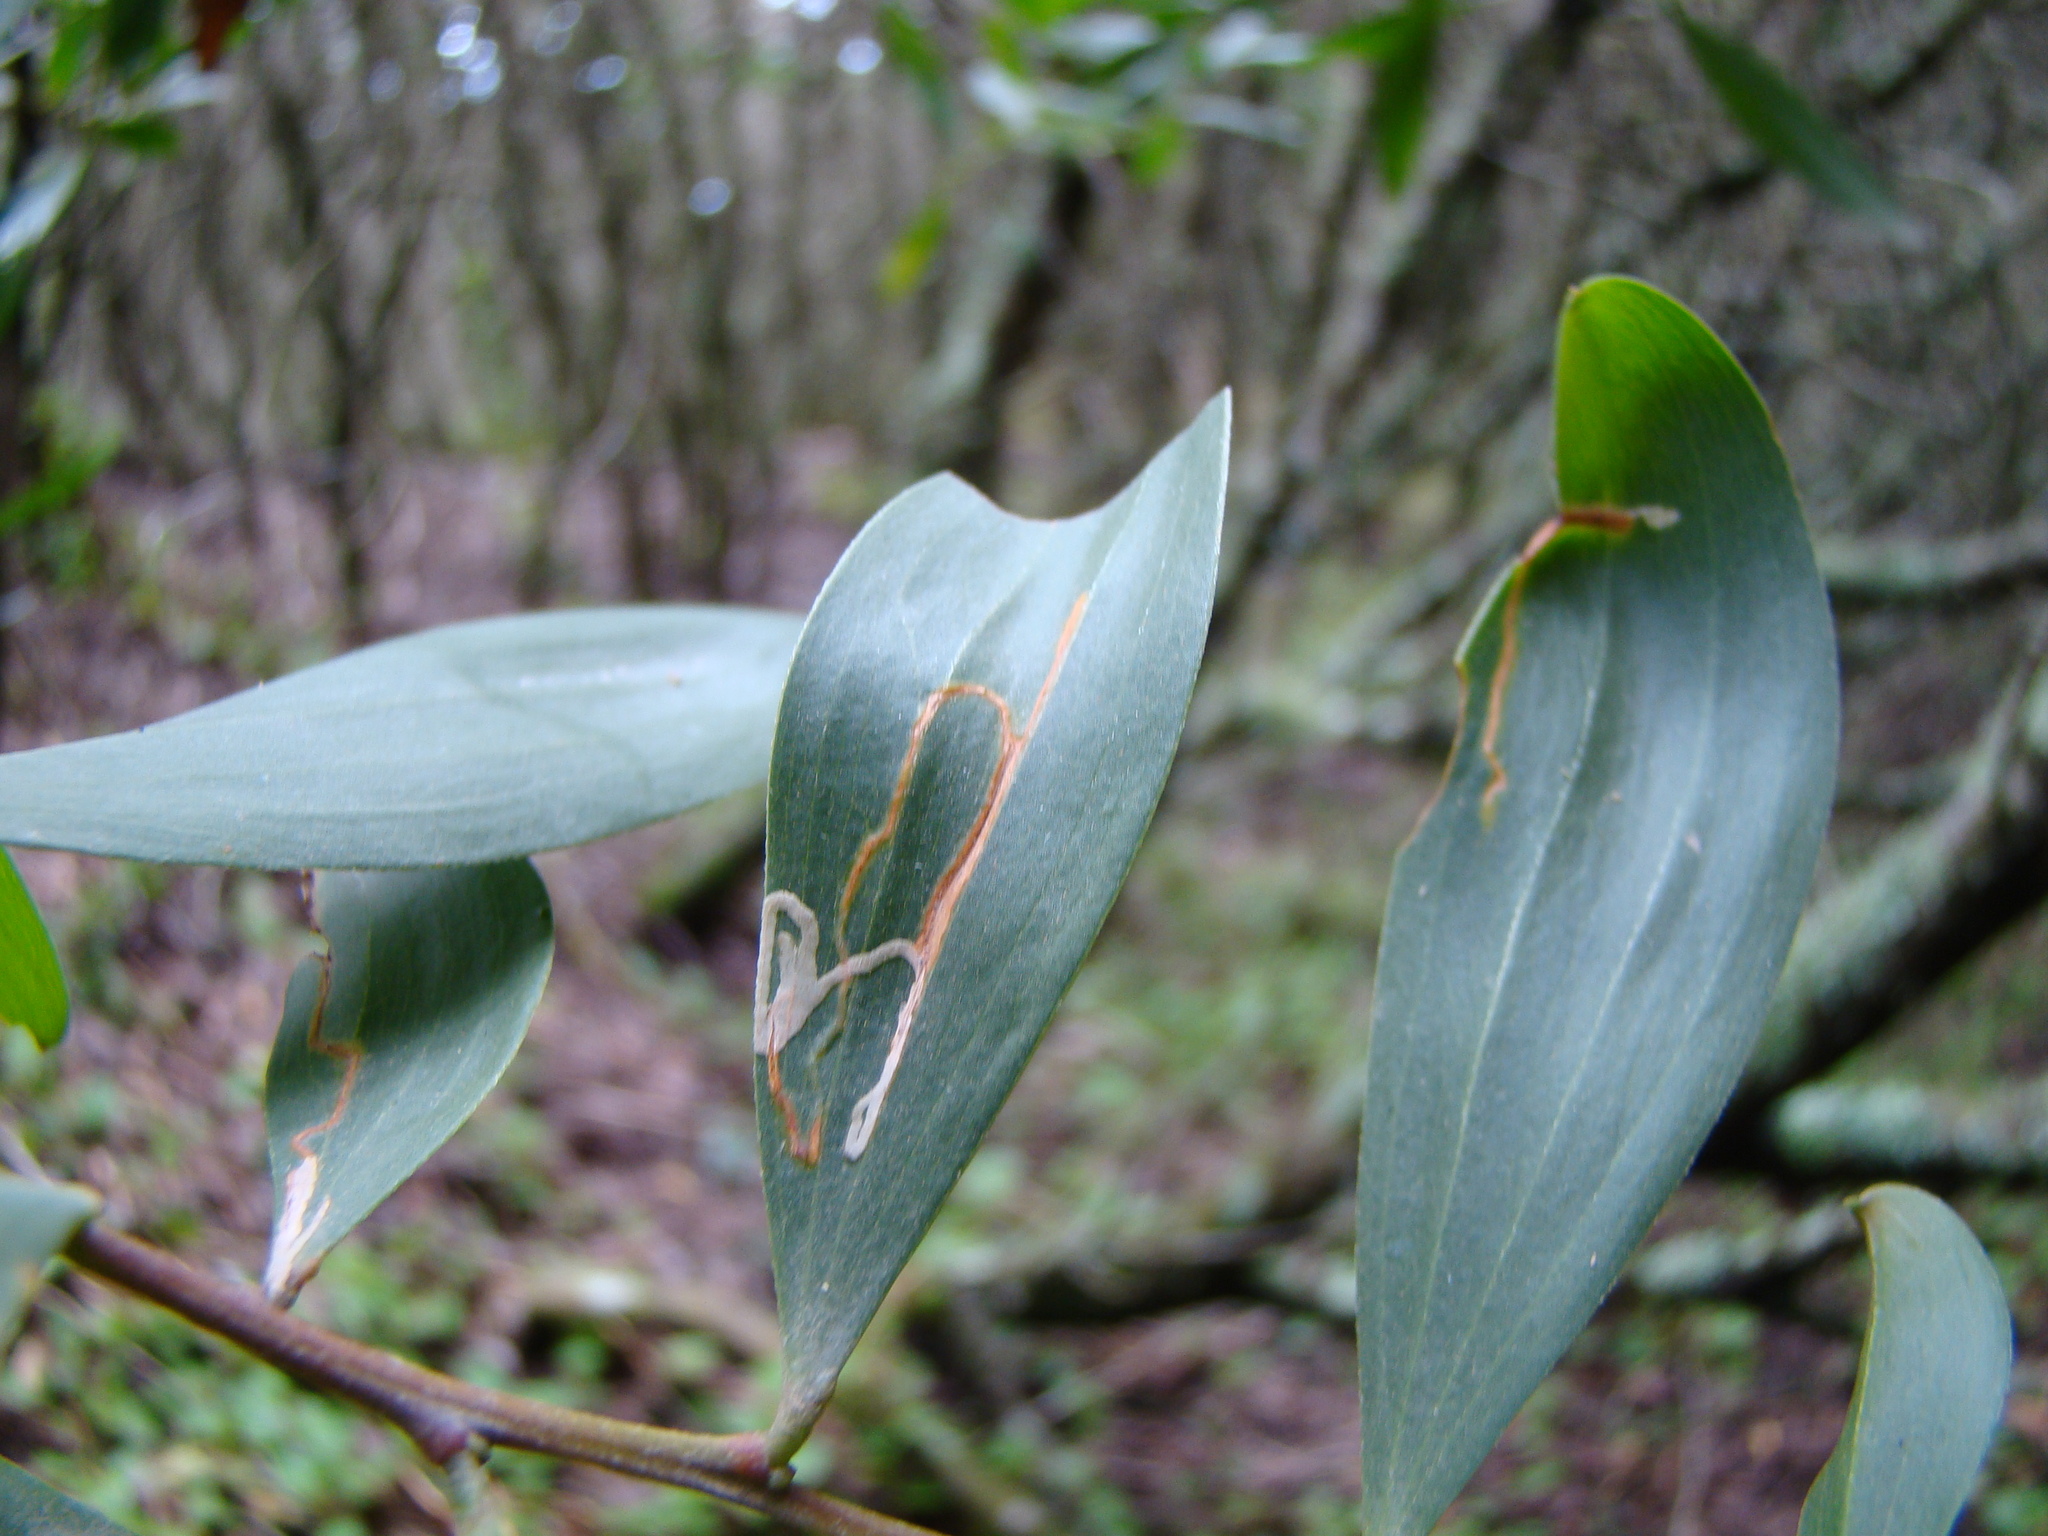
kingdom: Animalia
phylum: Arthropoda
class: Insecta
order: Lepidoptera
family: Gracillariidae
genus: Parectopa
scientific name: Parectopa alysidota
